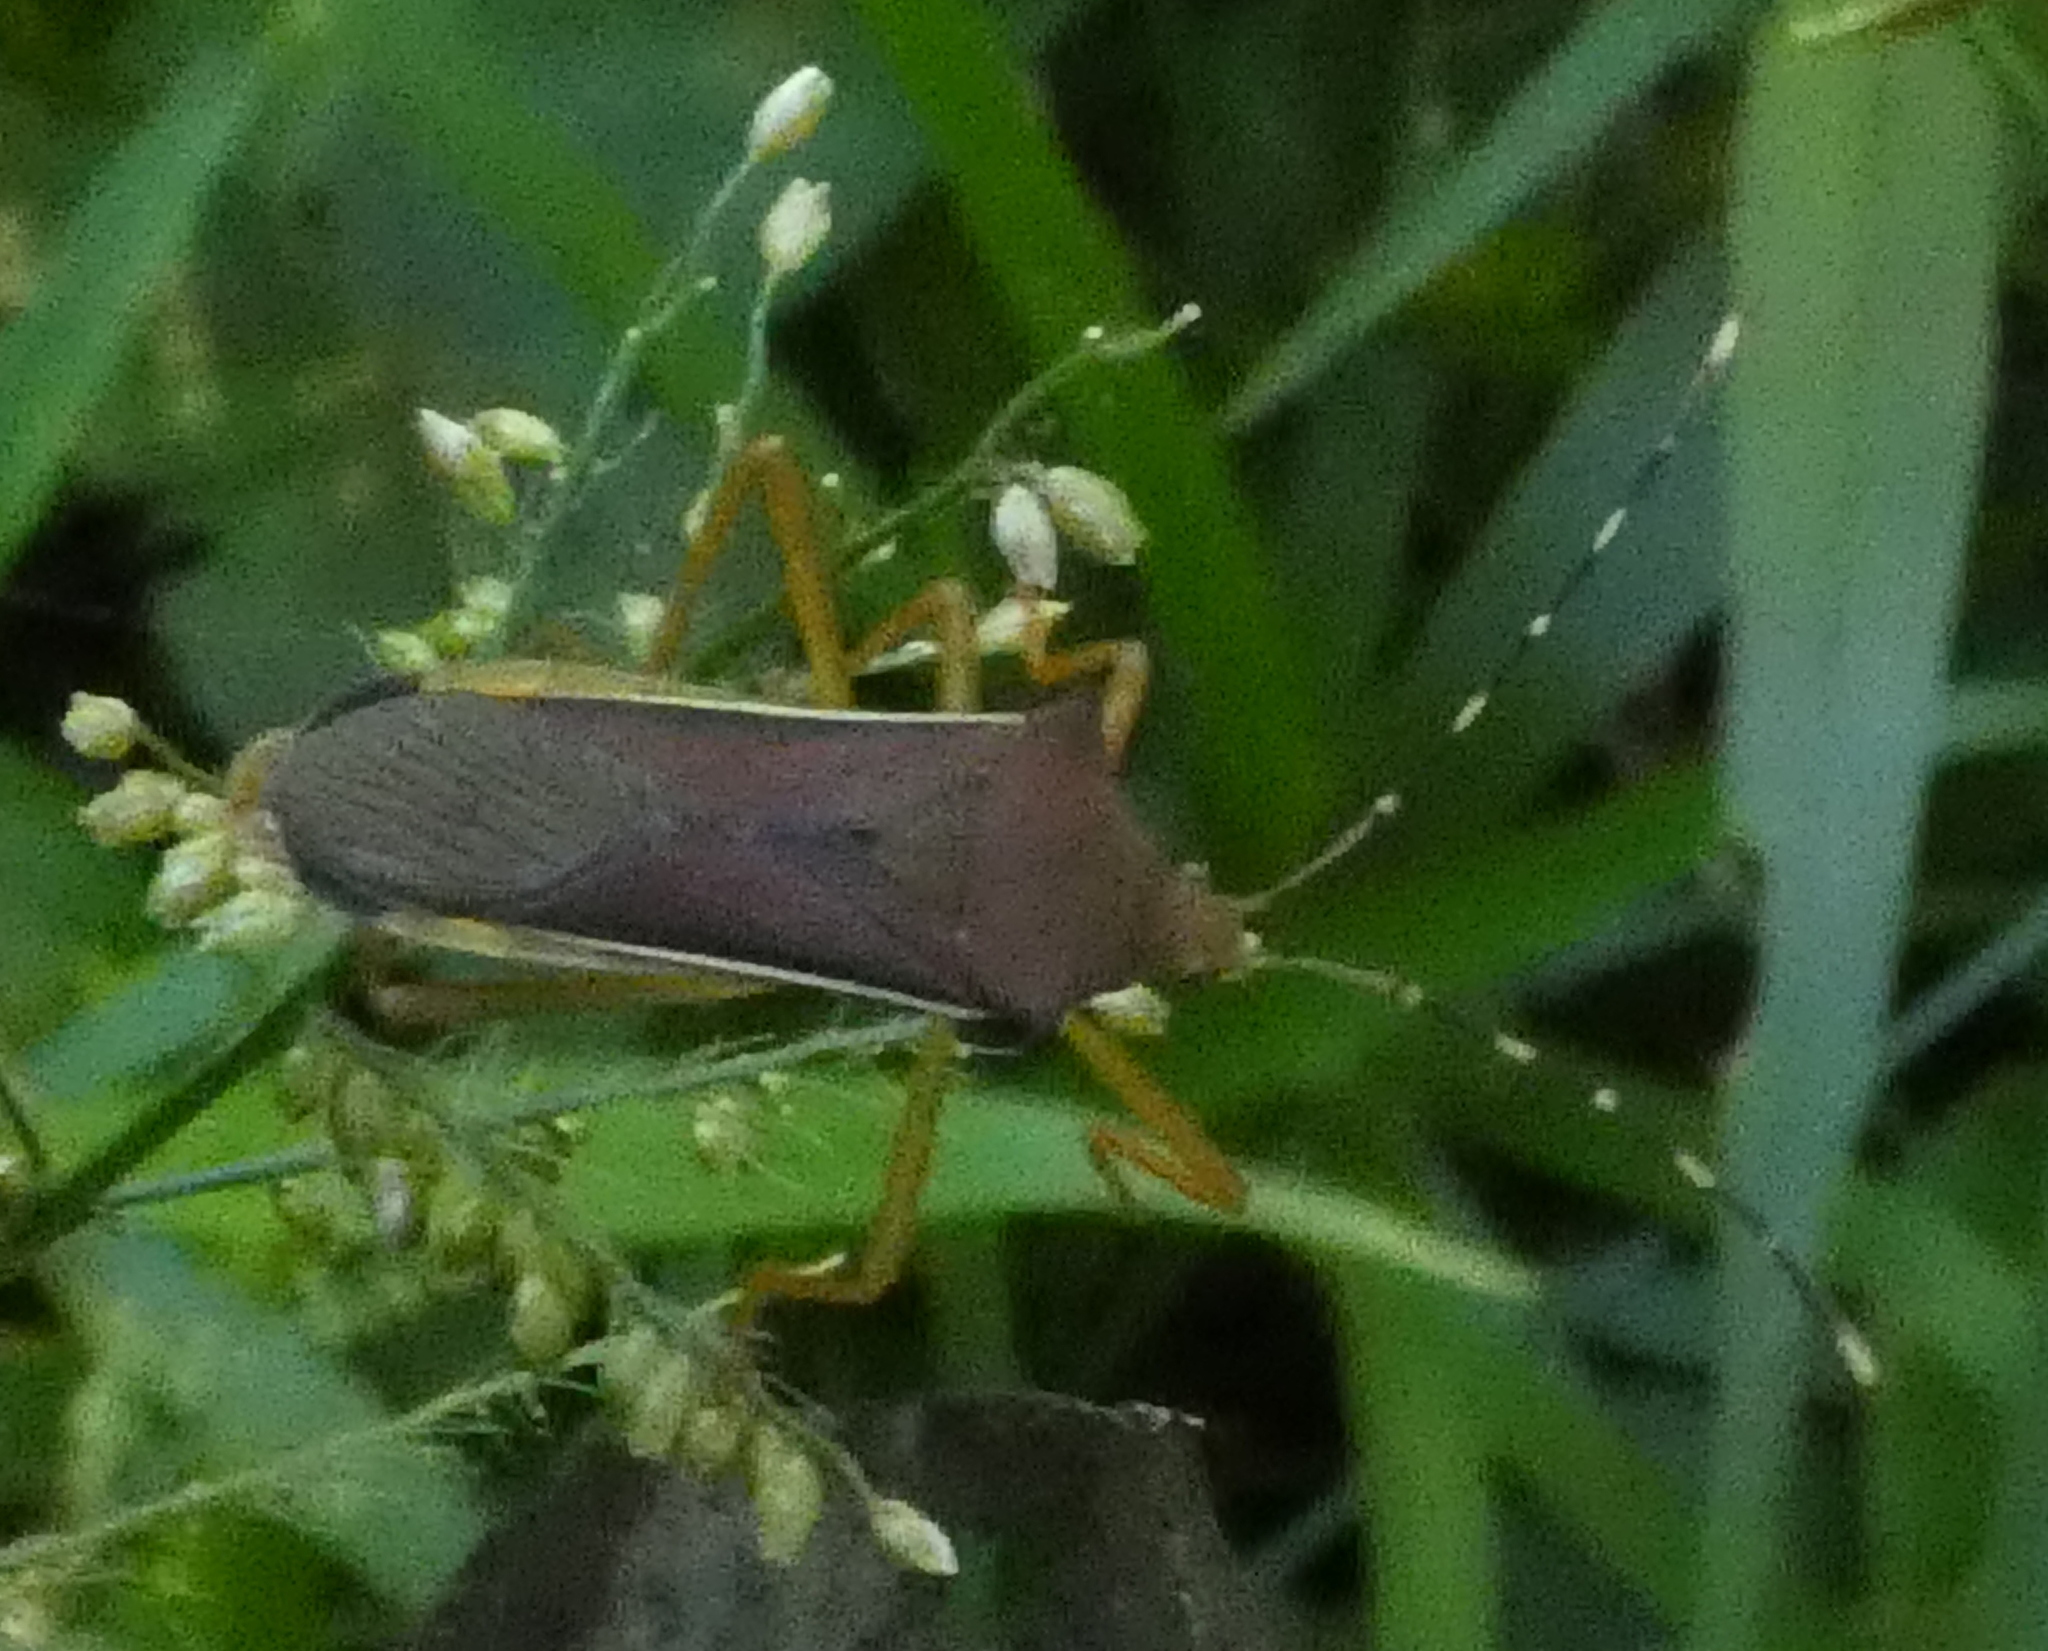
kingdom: Animalia
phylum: Arthropoda
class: Insecta
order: Hemiptera
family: Coreidae
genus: Anasa
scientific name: Anasa varicornis
